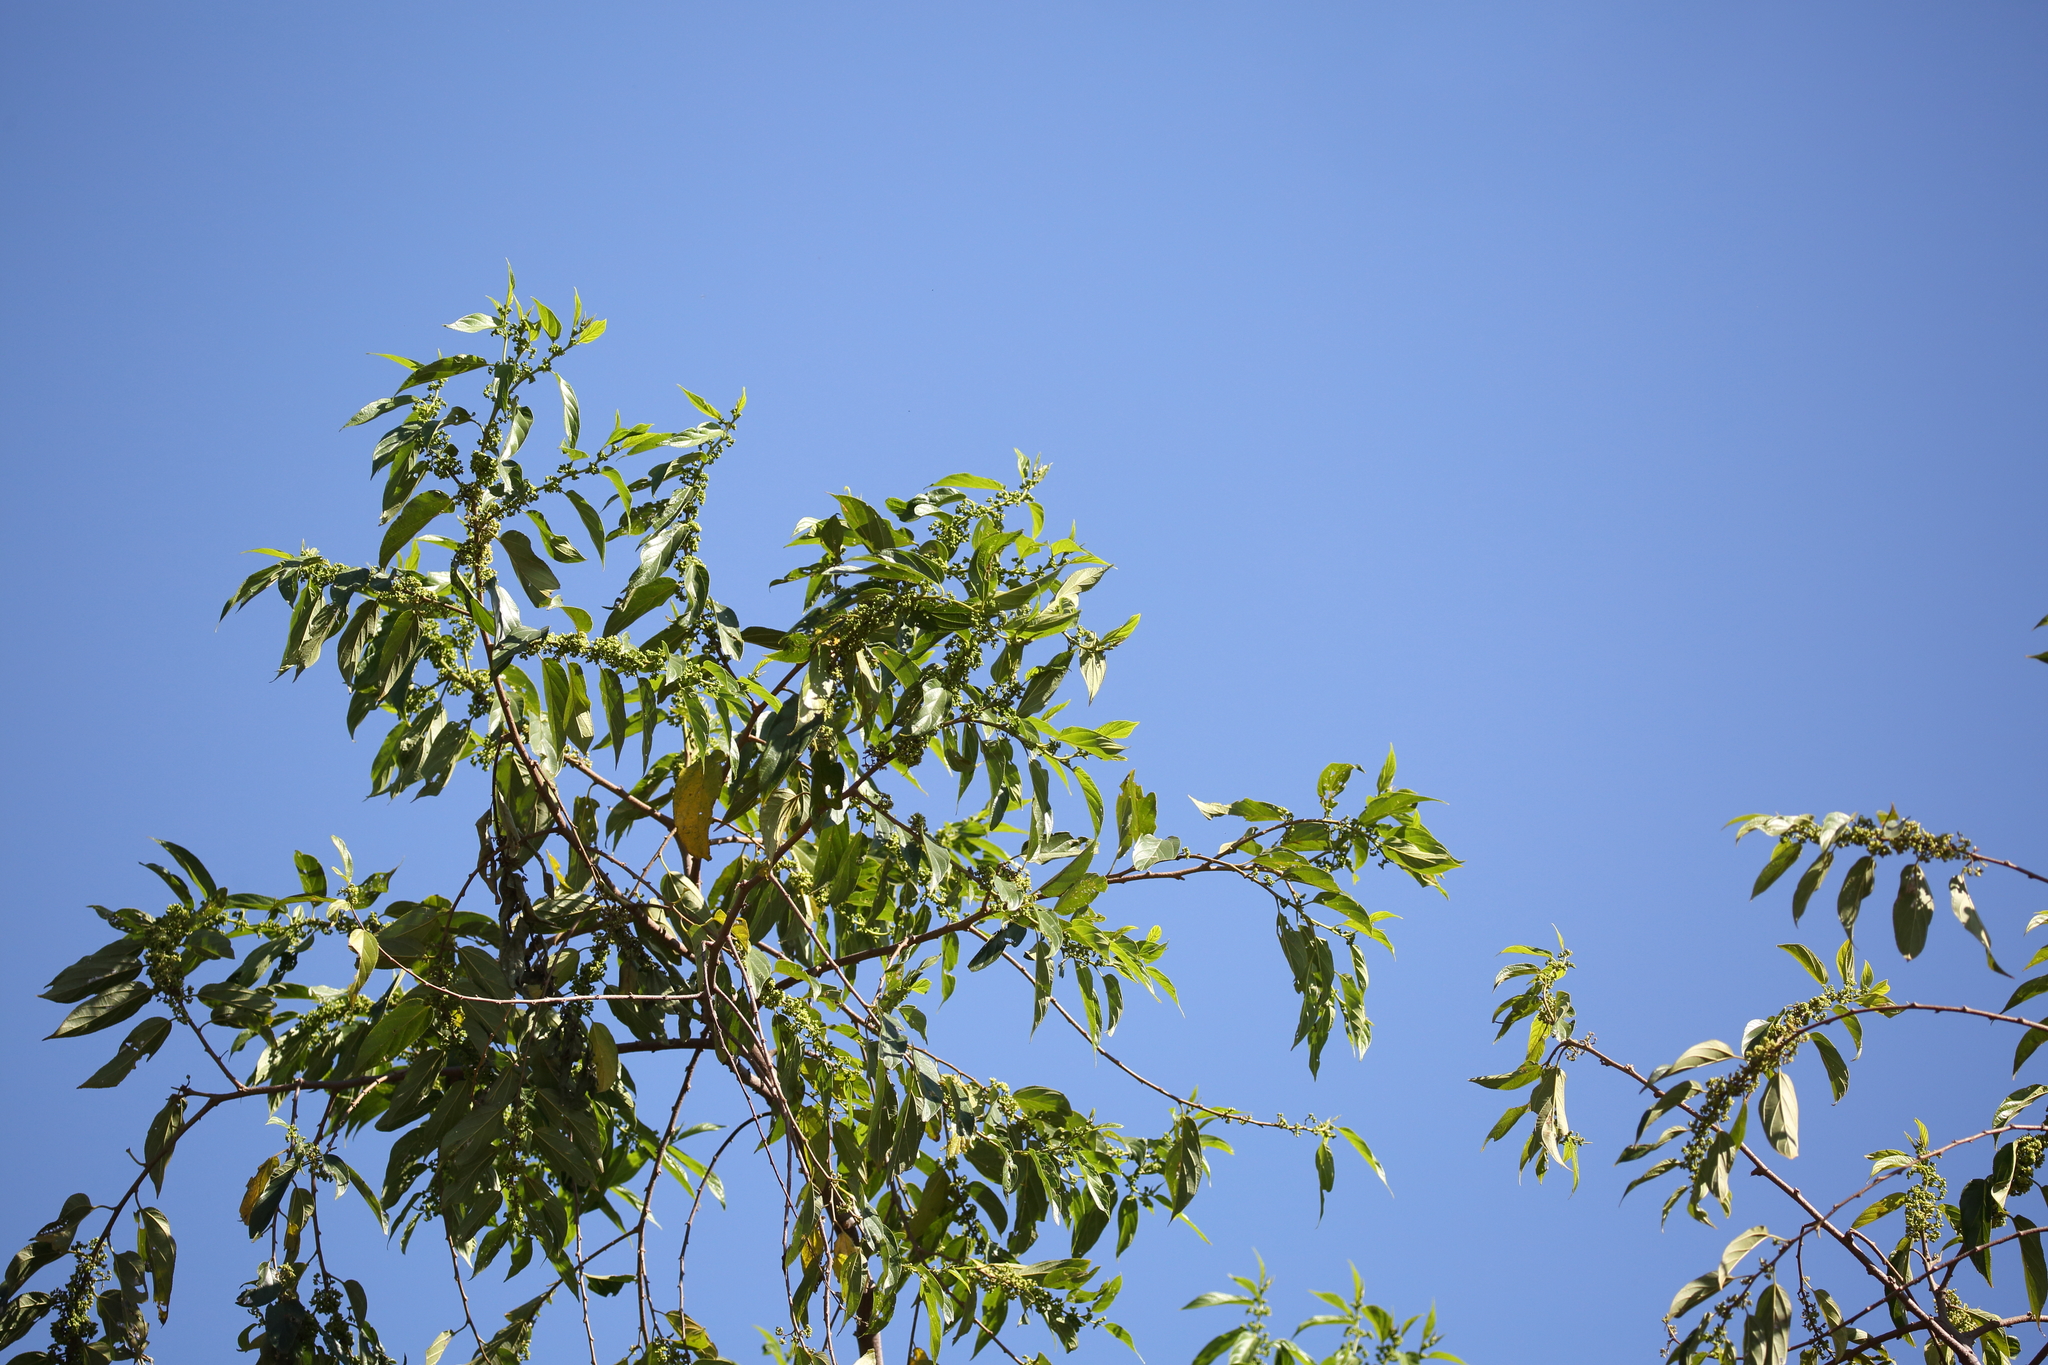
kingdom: Plantae
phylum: Tracheophyta
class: Magnoliopsida
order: Rosales
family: Cannabaceae
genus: Trema
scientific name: Trema micranthum
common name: Jamaican nettletree
